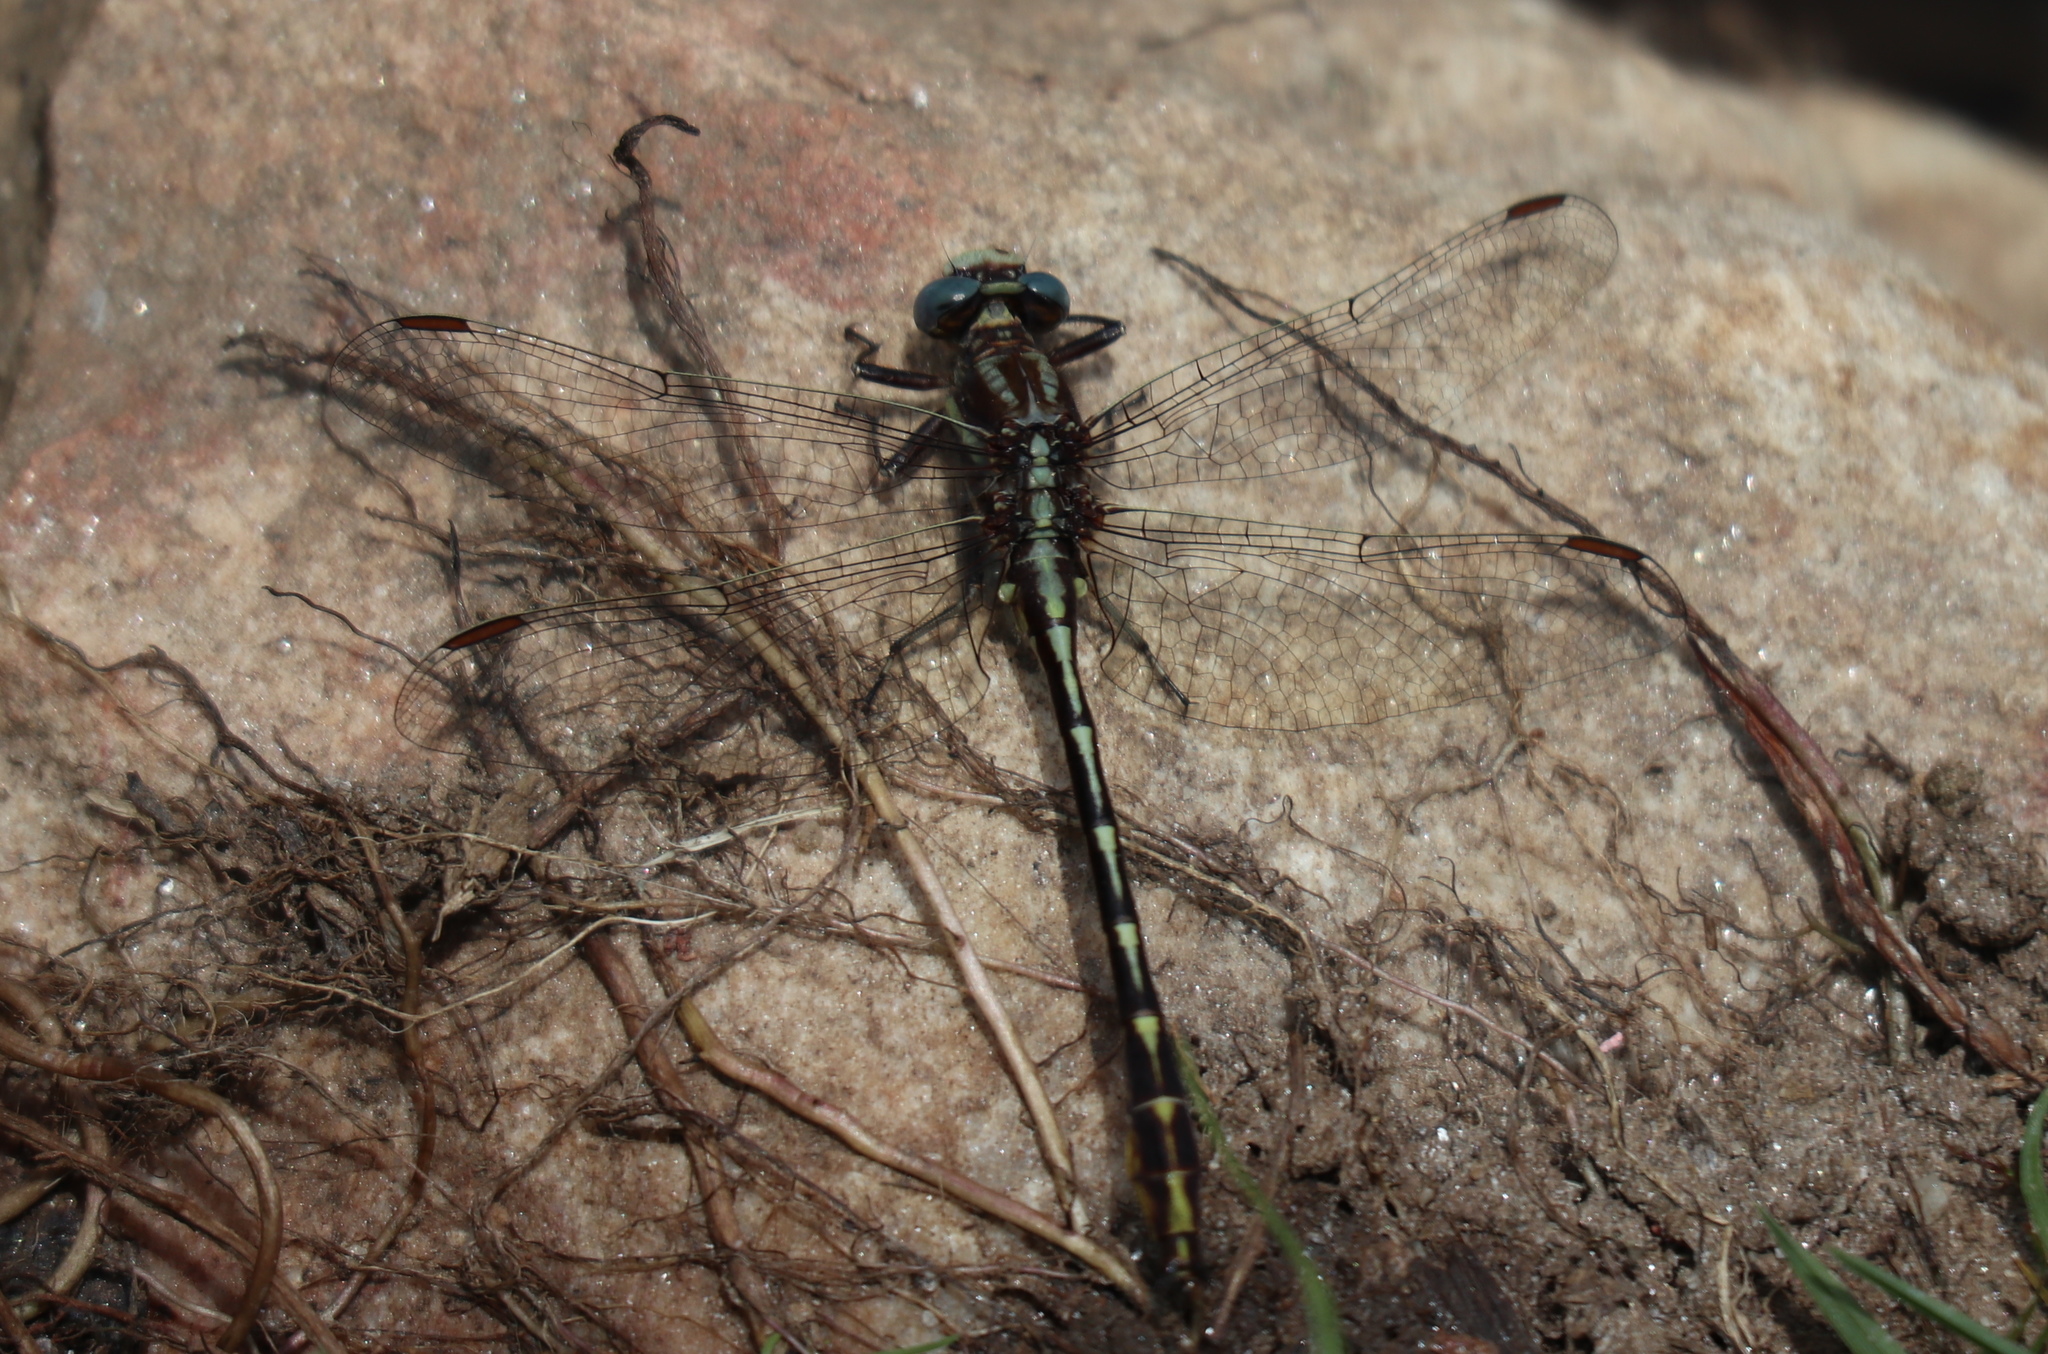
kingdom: Animalia
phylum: Arthropoda
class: Insecta
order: Odonata
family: Gomphidae
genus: Phanogomphus
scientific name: Phanogomphus exilis
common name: Lancet clubtail
